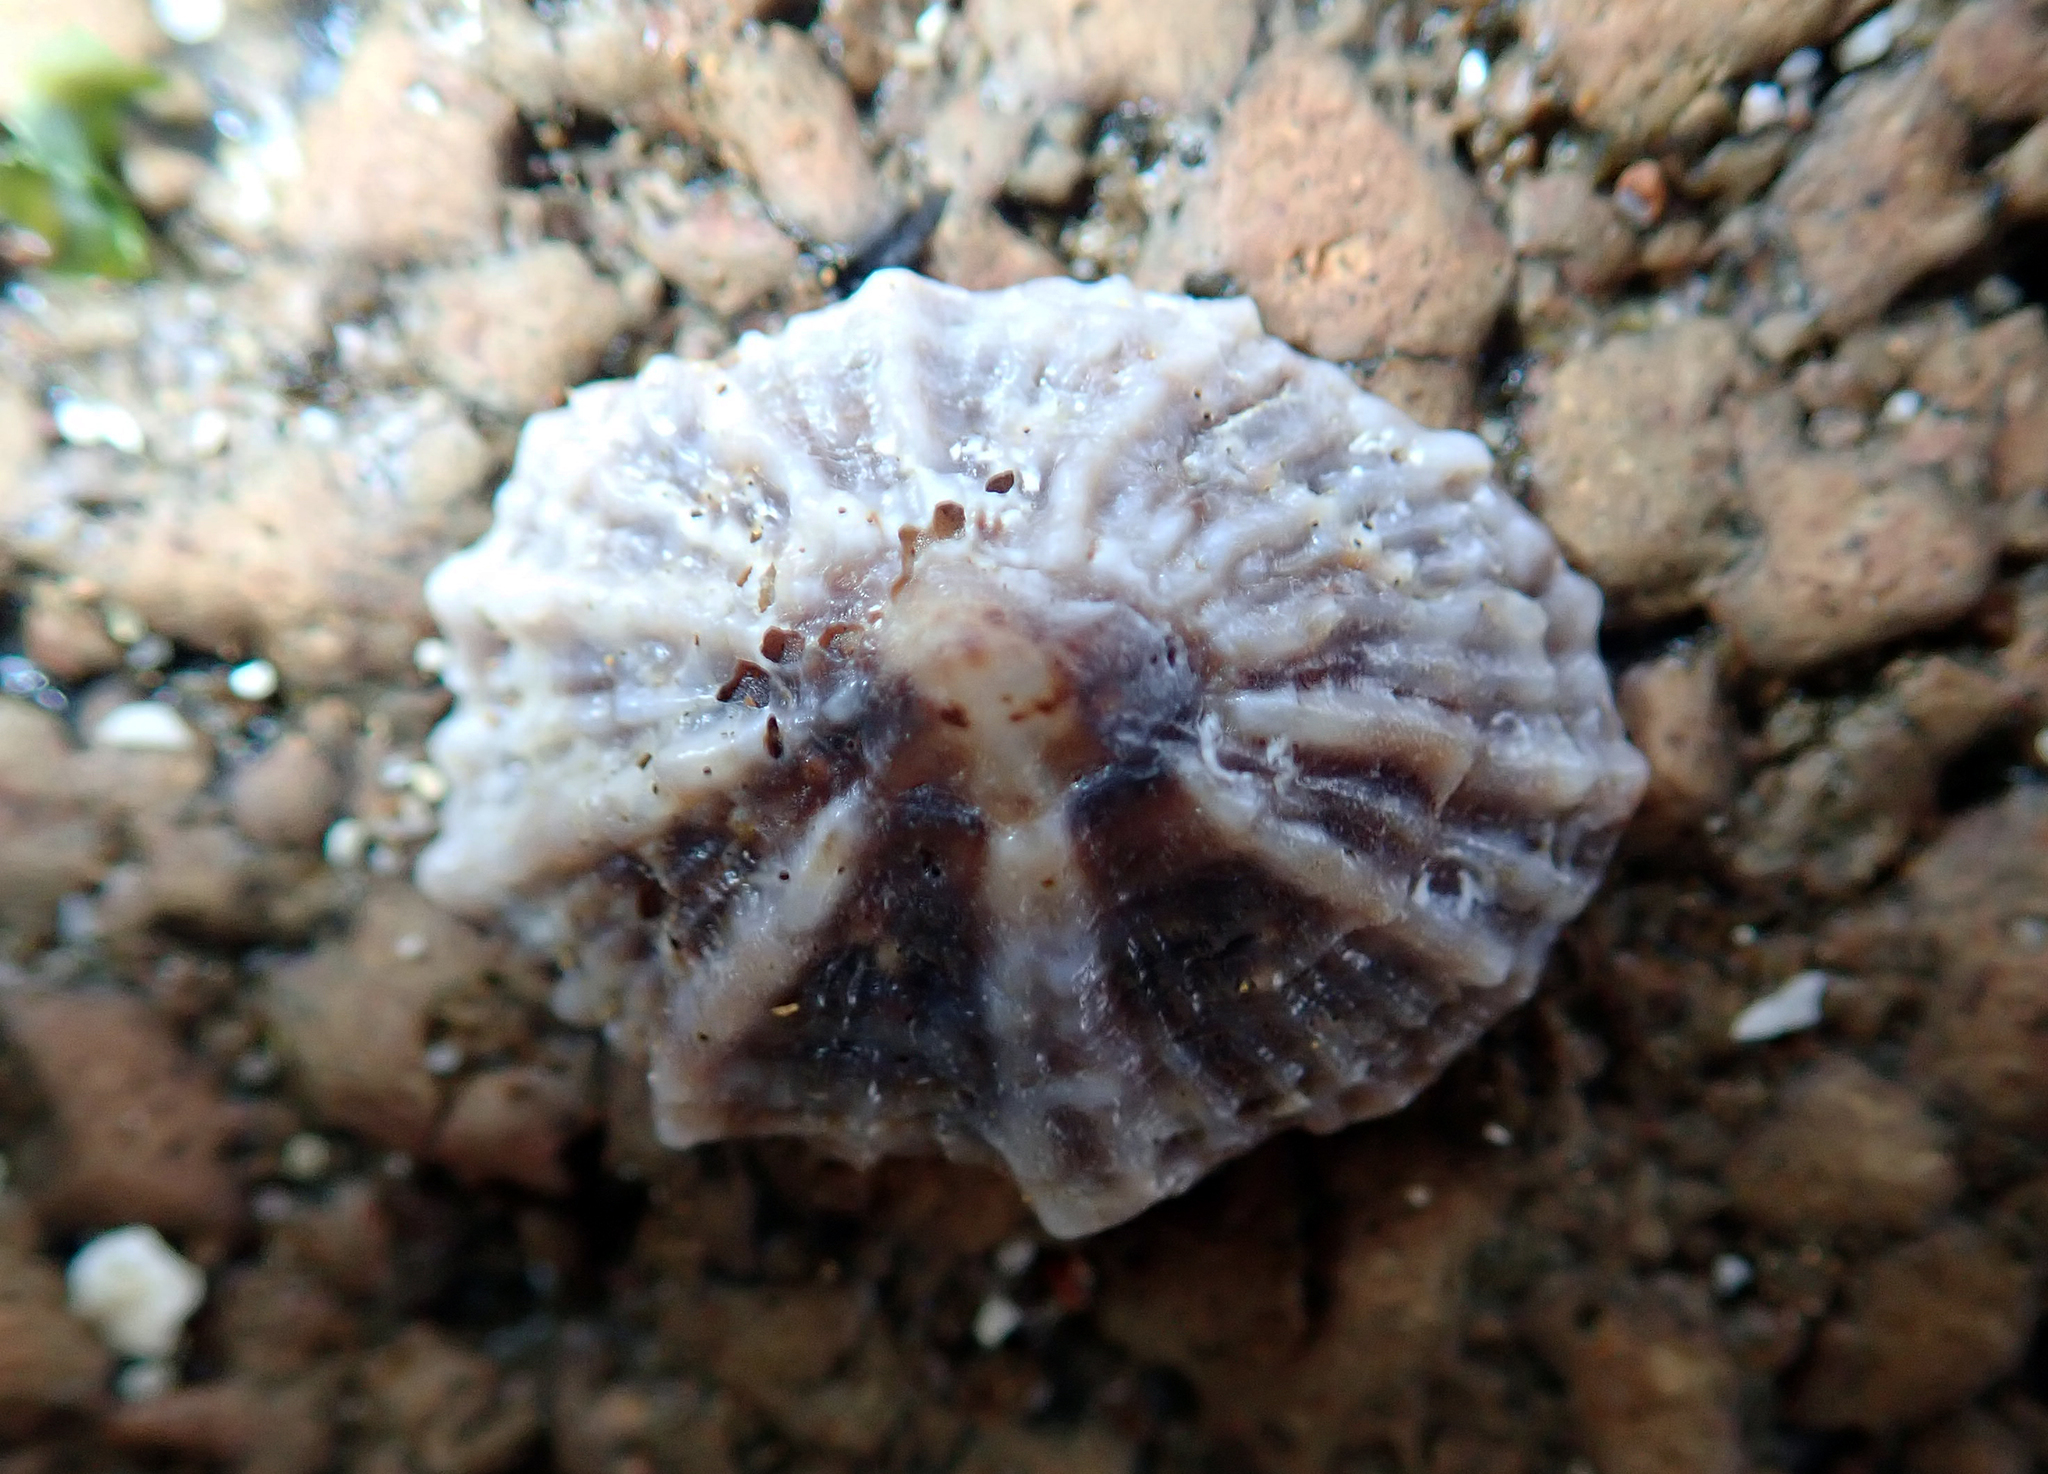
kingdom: Animalia
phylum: Mollusca
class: Gastropoda
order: Siphonariida
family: Siphonariidae
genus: Siphonaria
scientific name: Siphonaria australis
